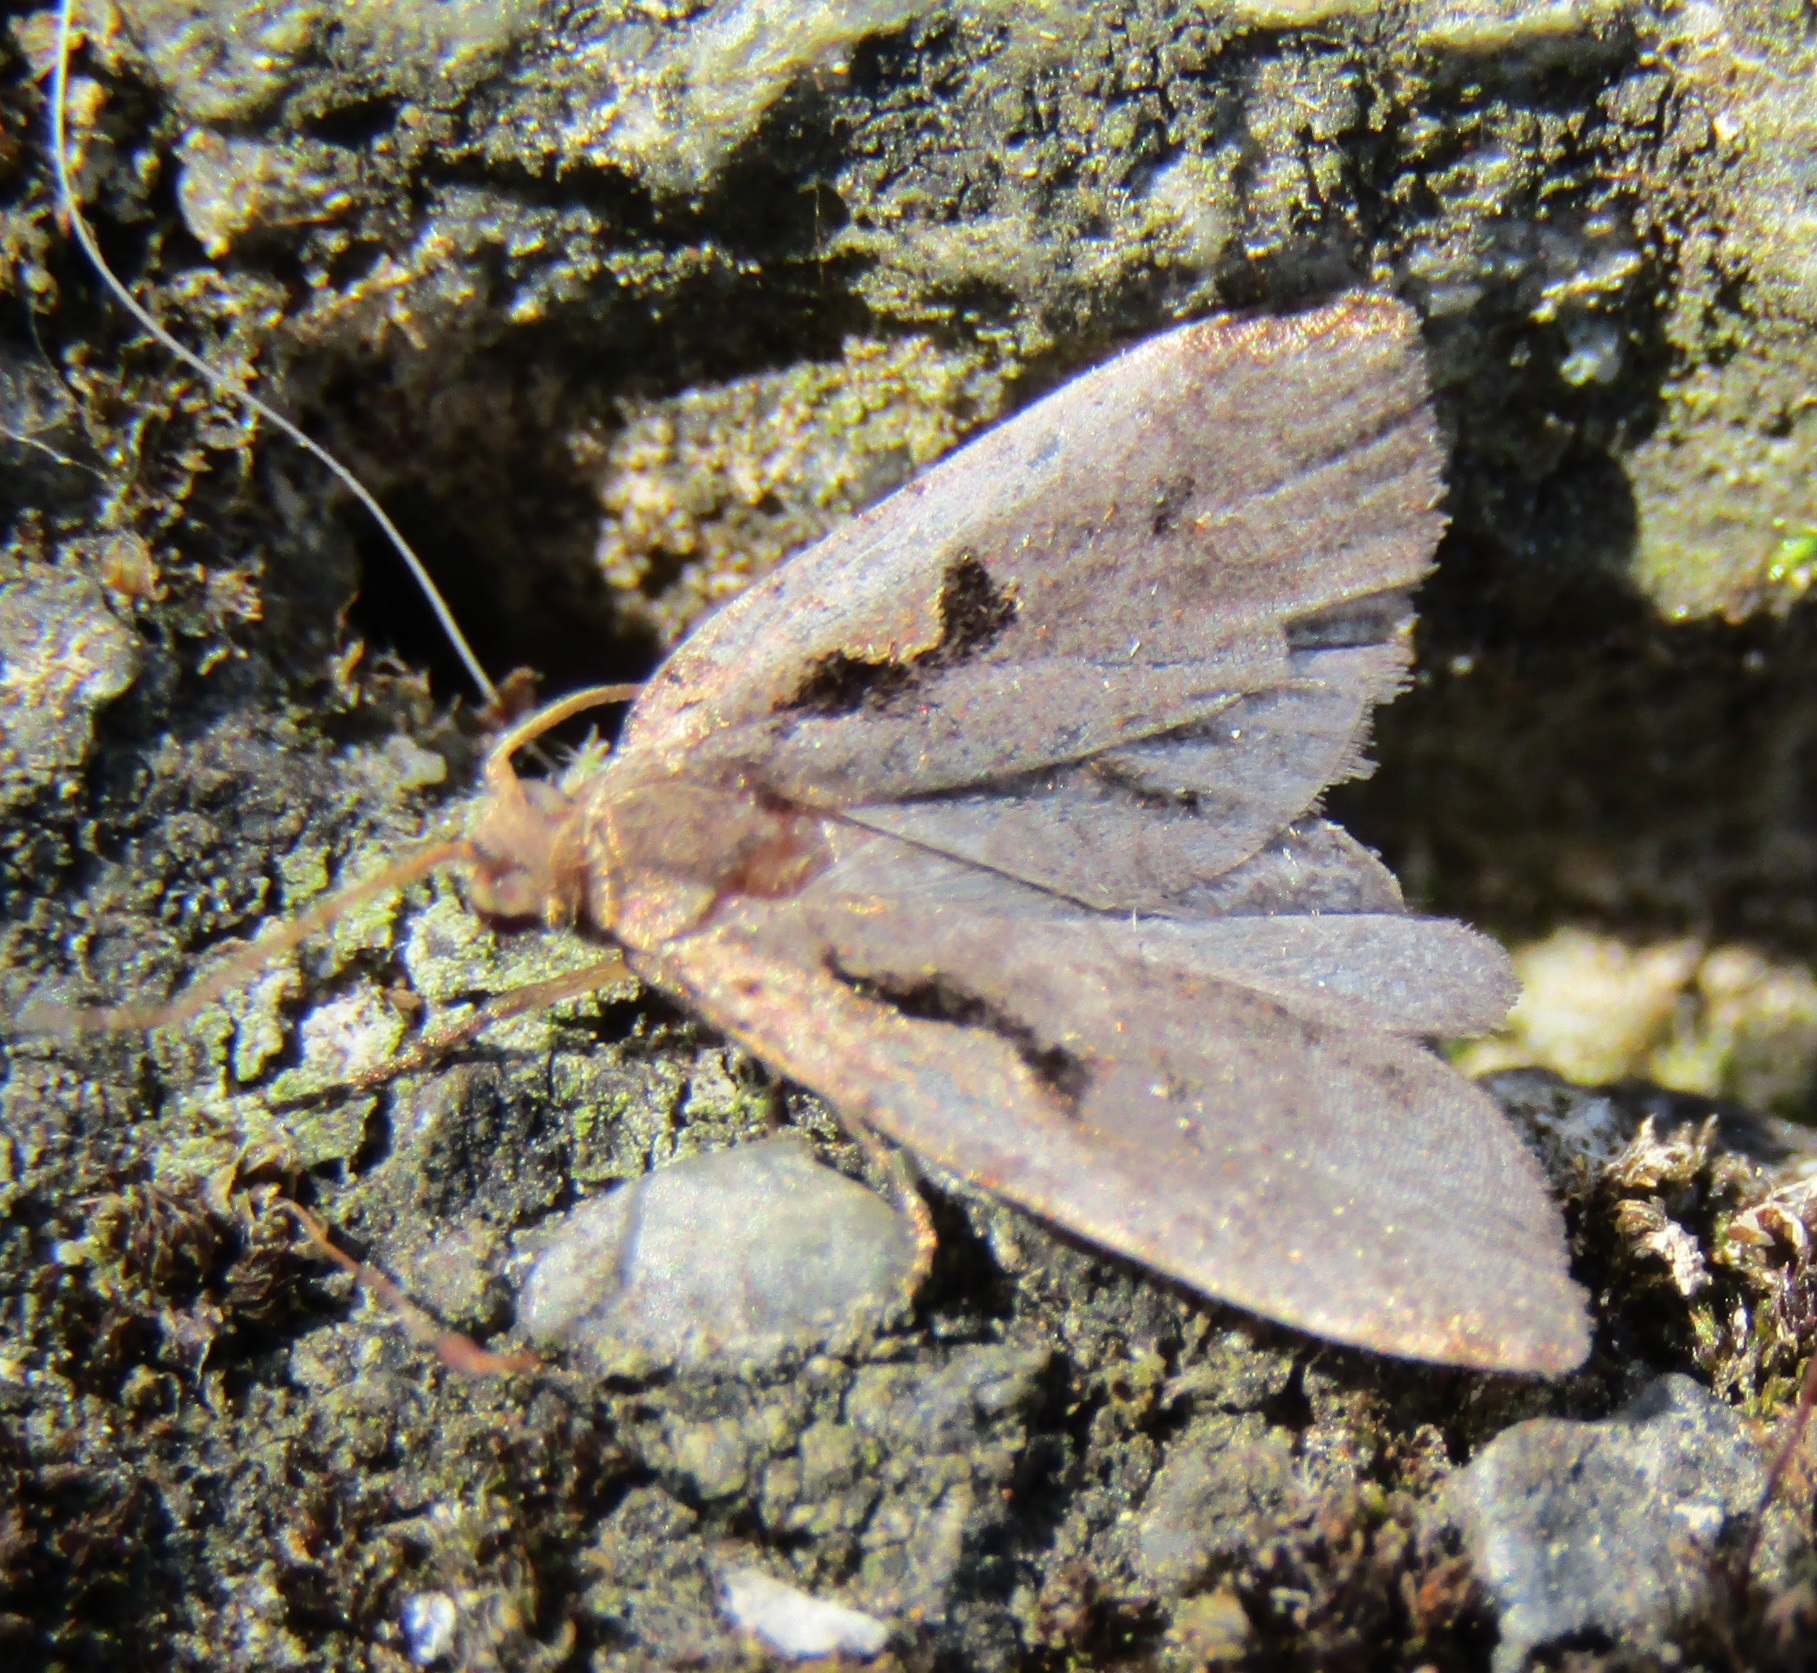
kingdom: Animalia
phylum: Arthropoda
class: Insecta
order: Lepidoptera
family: Tortricidae
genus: Cnephasia
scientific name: Cnephasia jactatana
